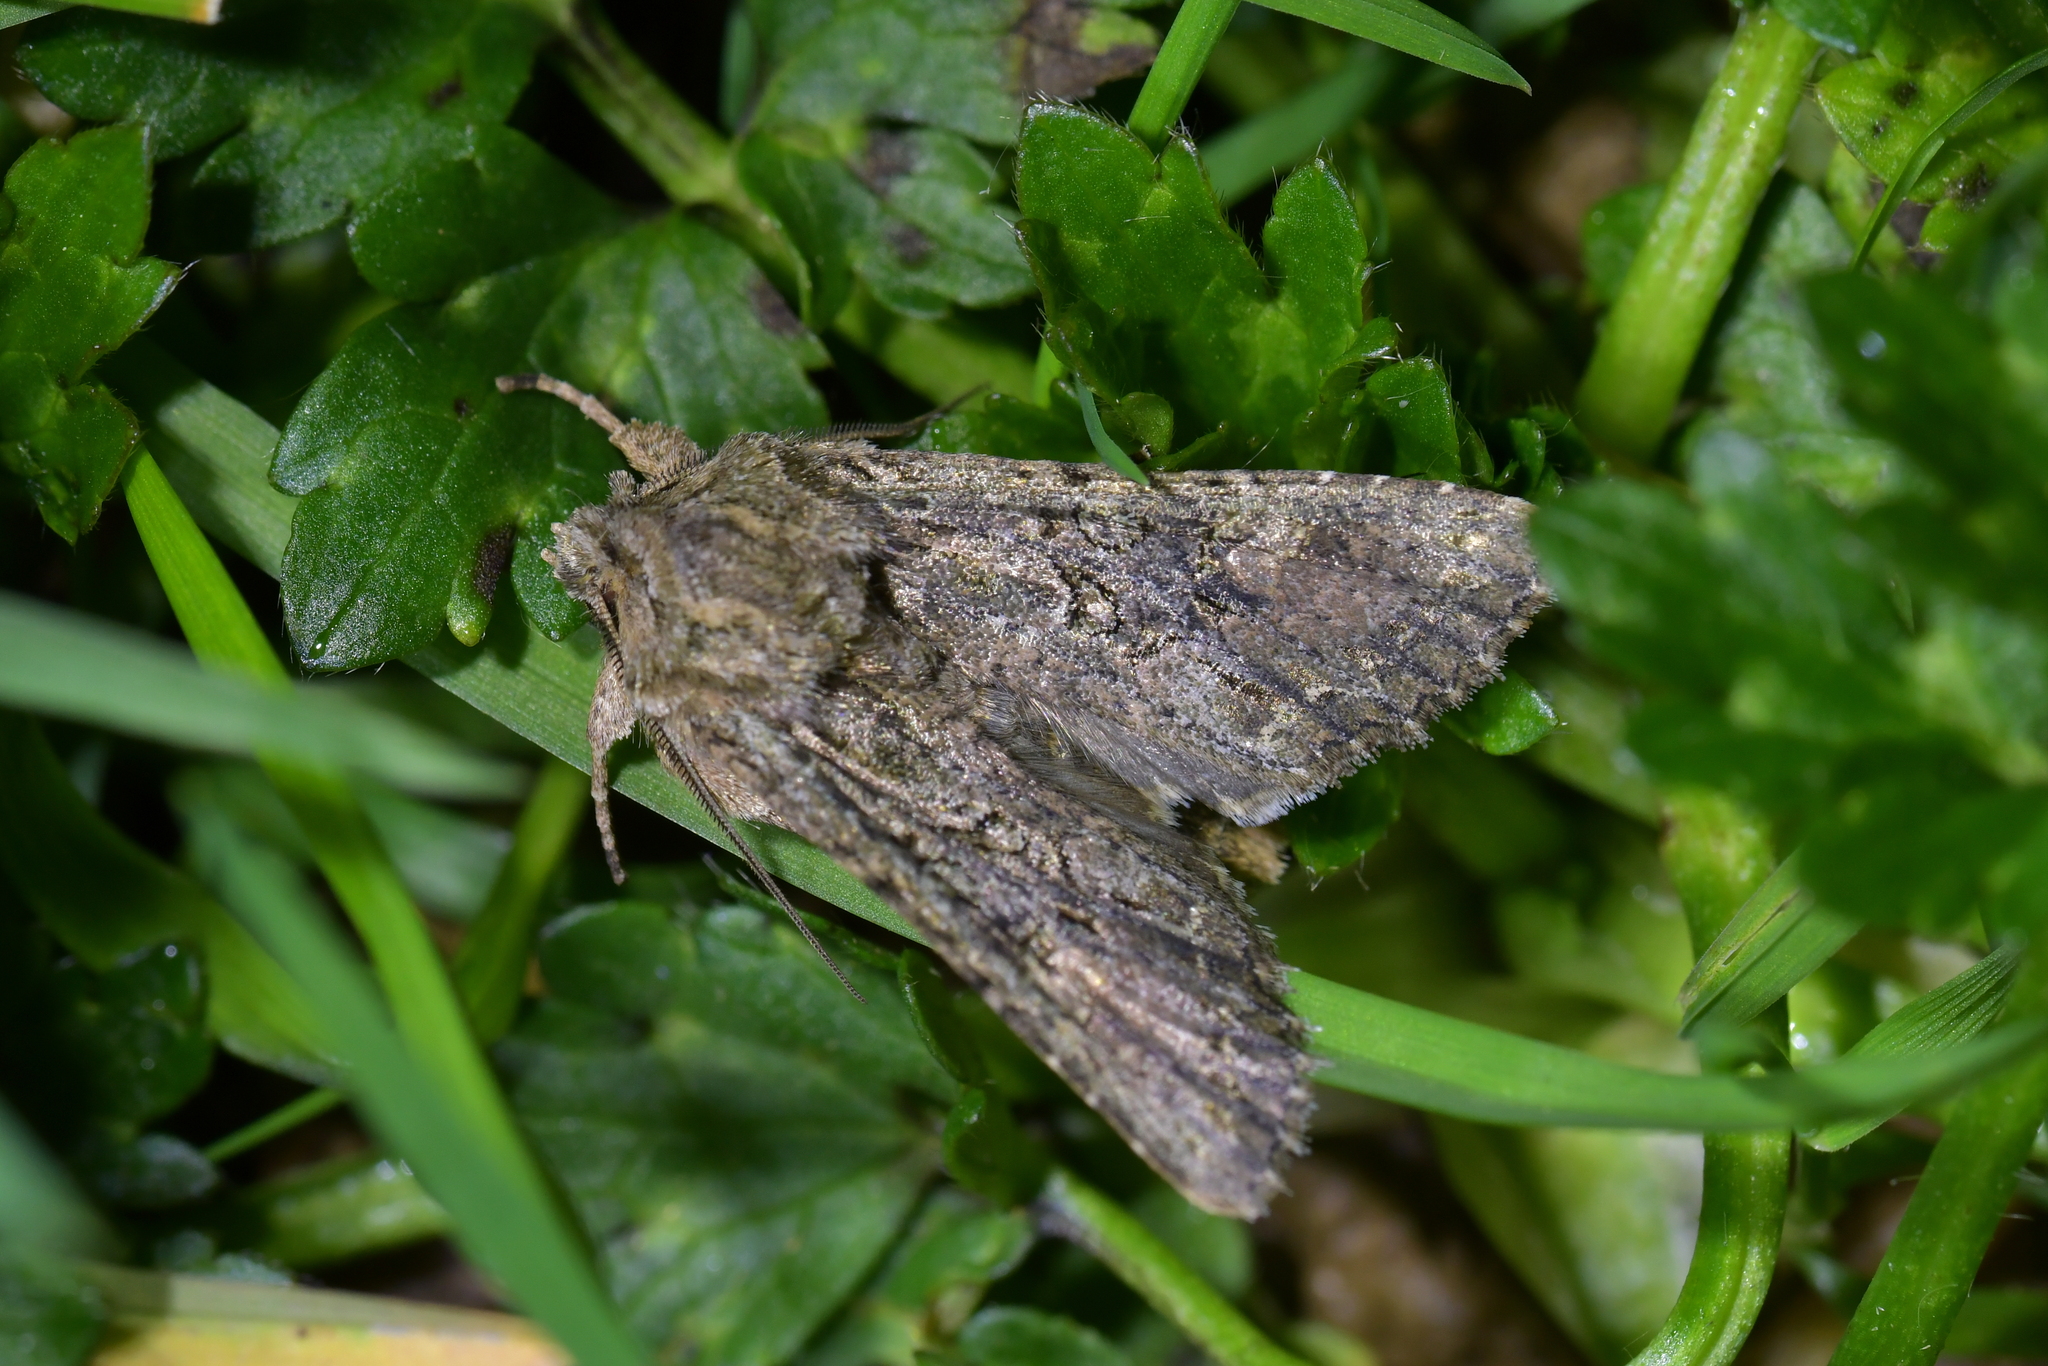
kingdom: Animalia
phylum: Arthropoda
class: Insecta
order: Lepidoptera
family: Noctuidae
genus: Ichneutica
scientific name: Ichneutica mutans
